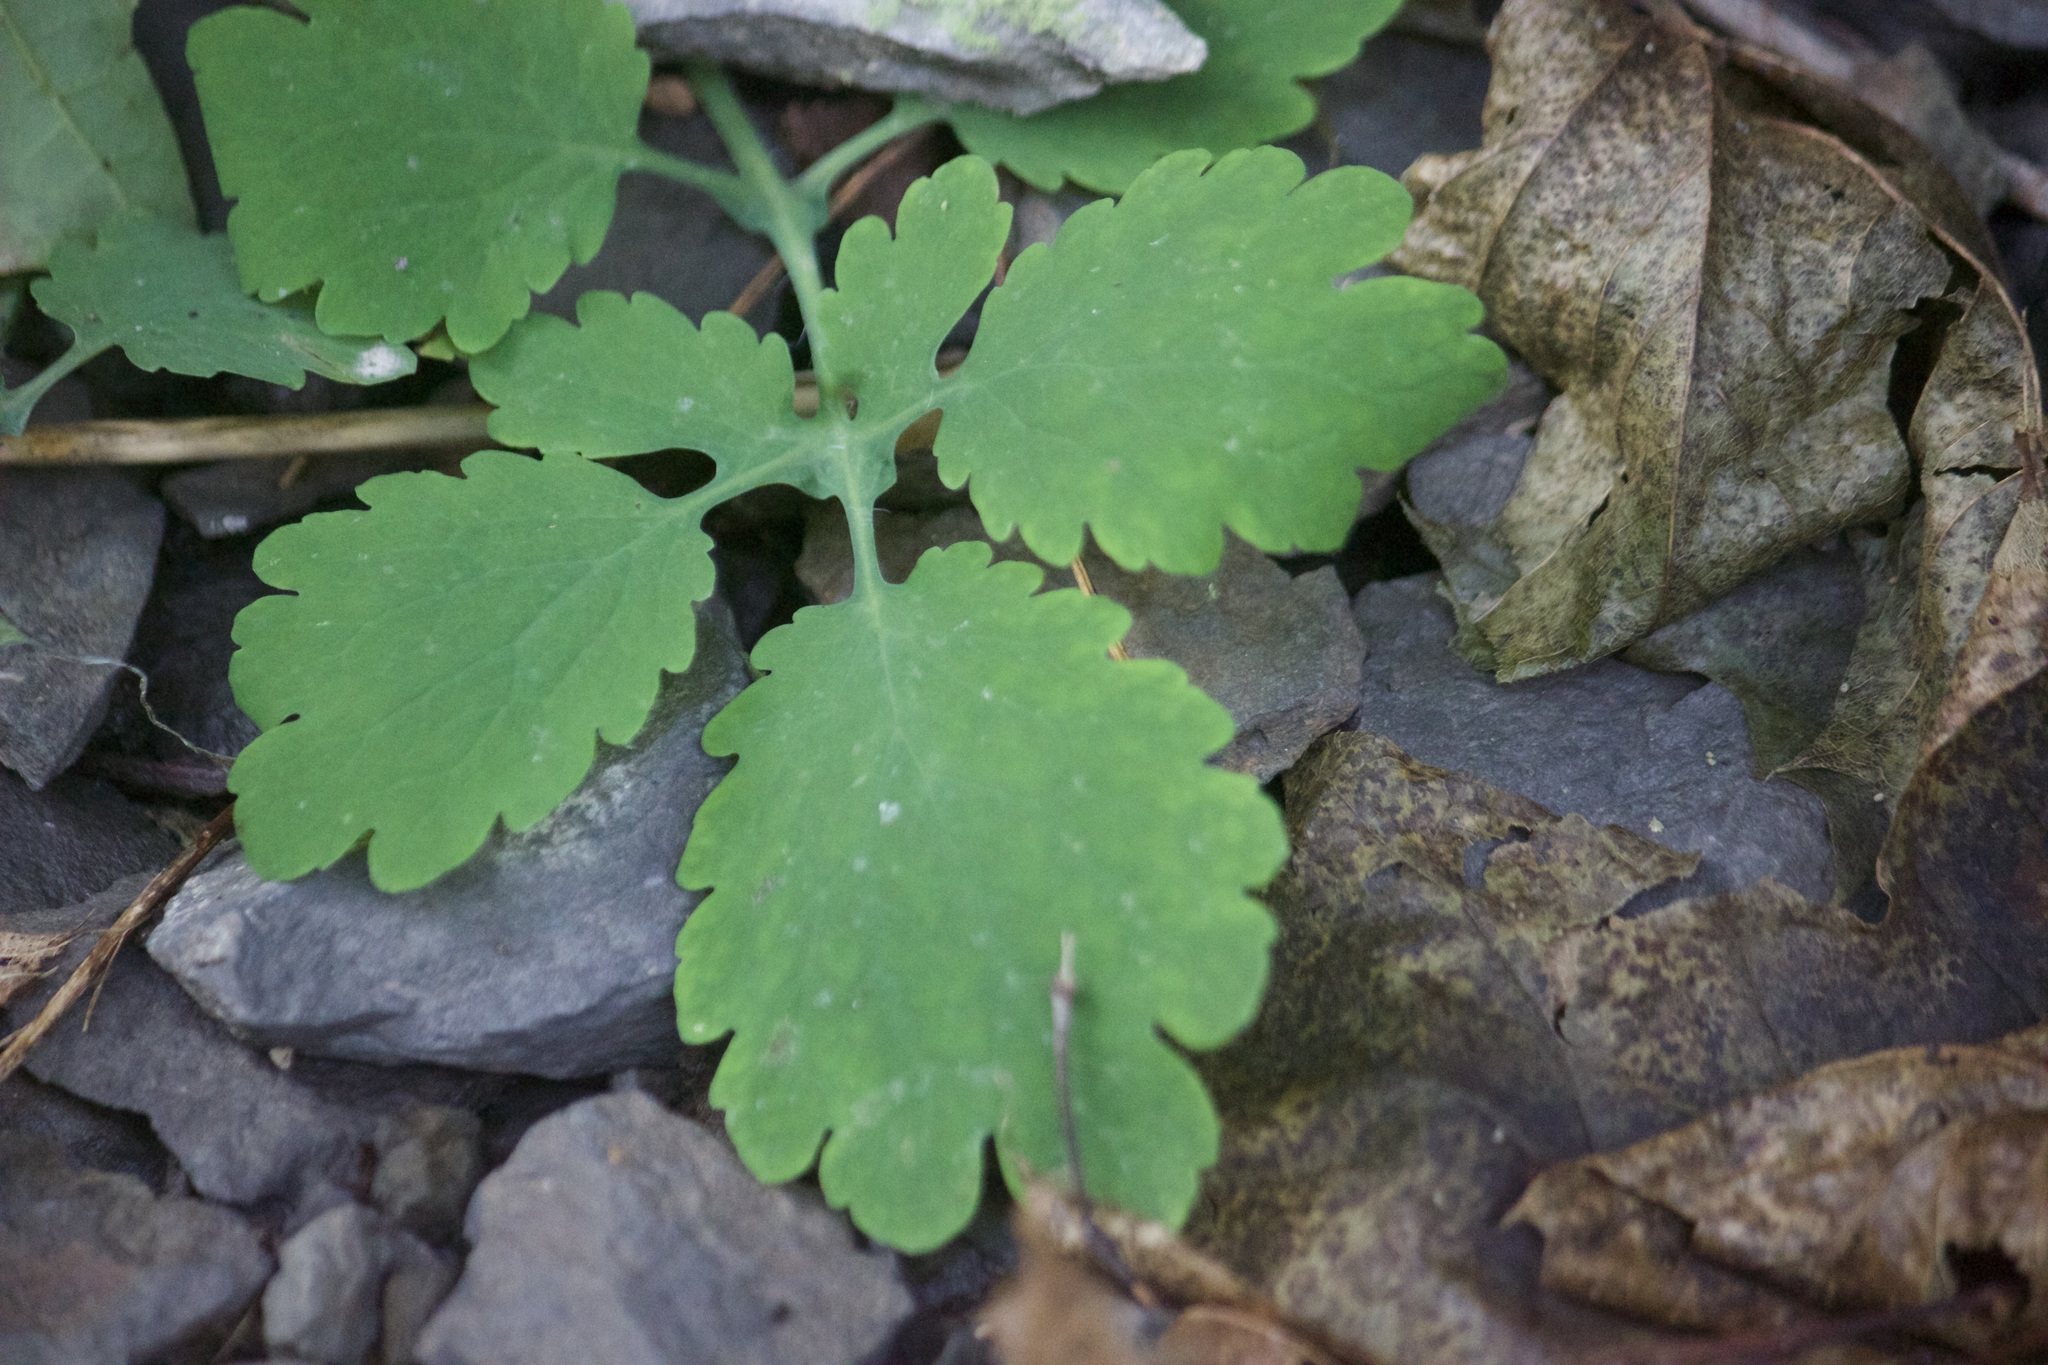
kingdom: Plantae
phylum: Tracheophyta
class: Magnoliopsida
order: Ranunculales
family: Papaveraceae
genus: Chelidonium
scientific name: Chelidonium majus
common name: Greater celandine
